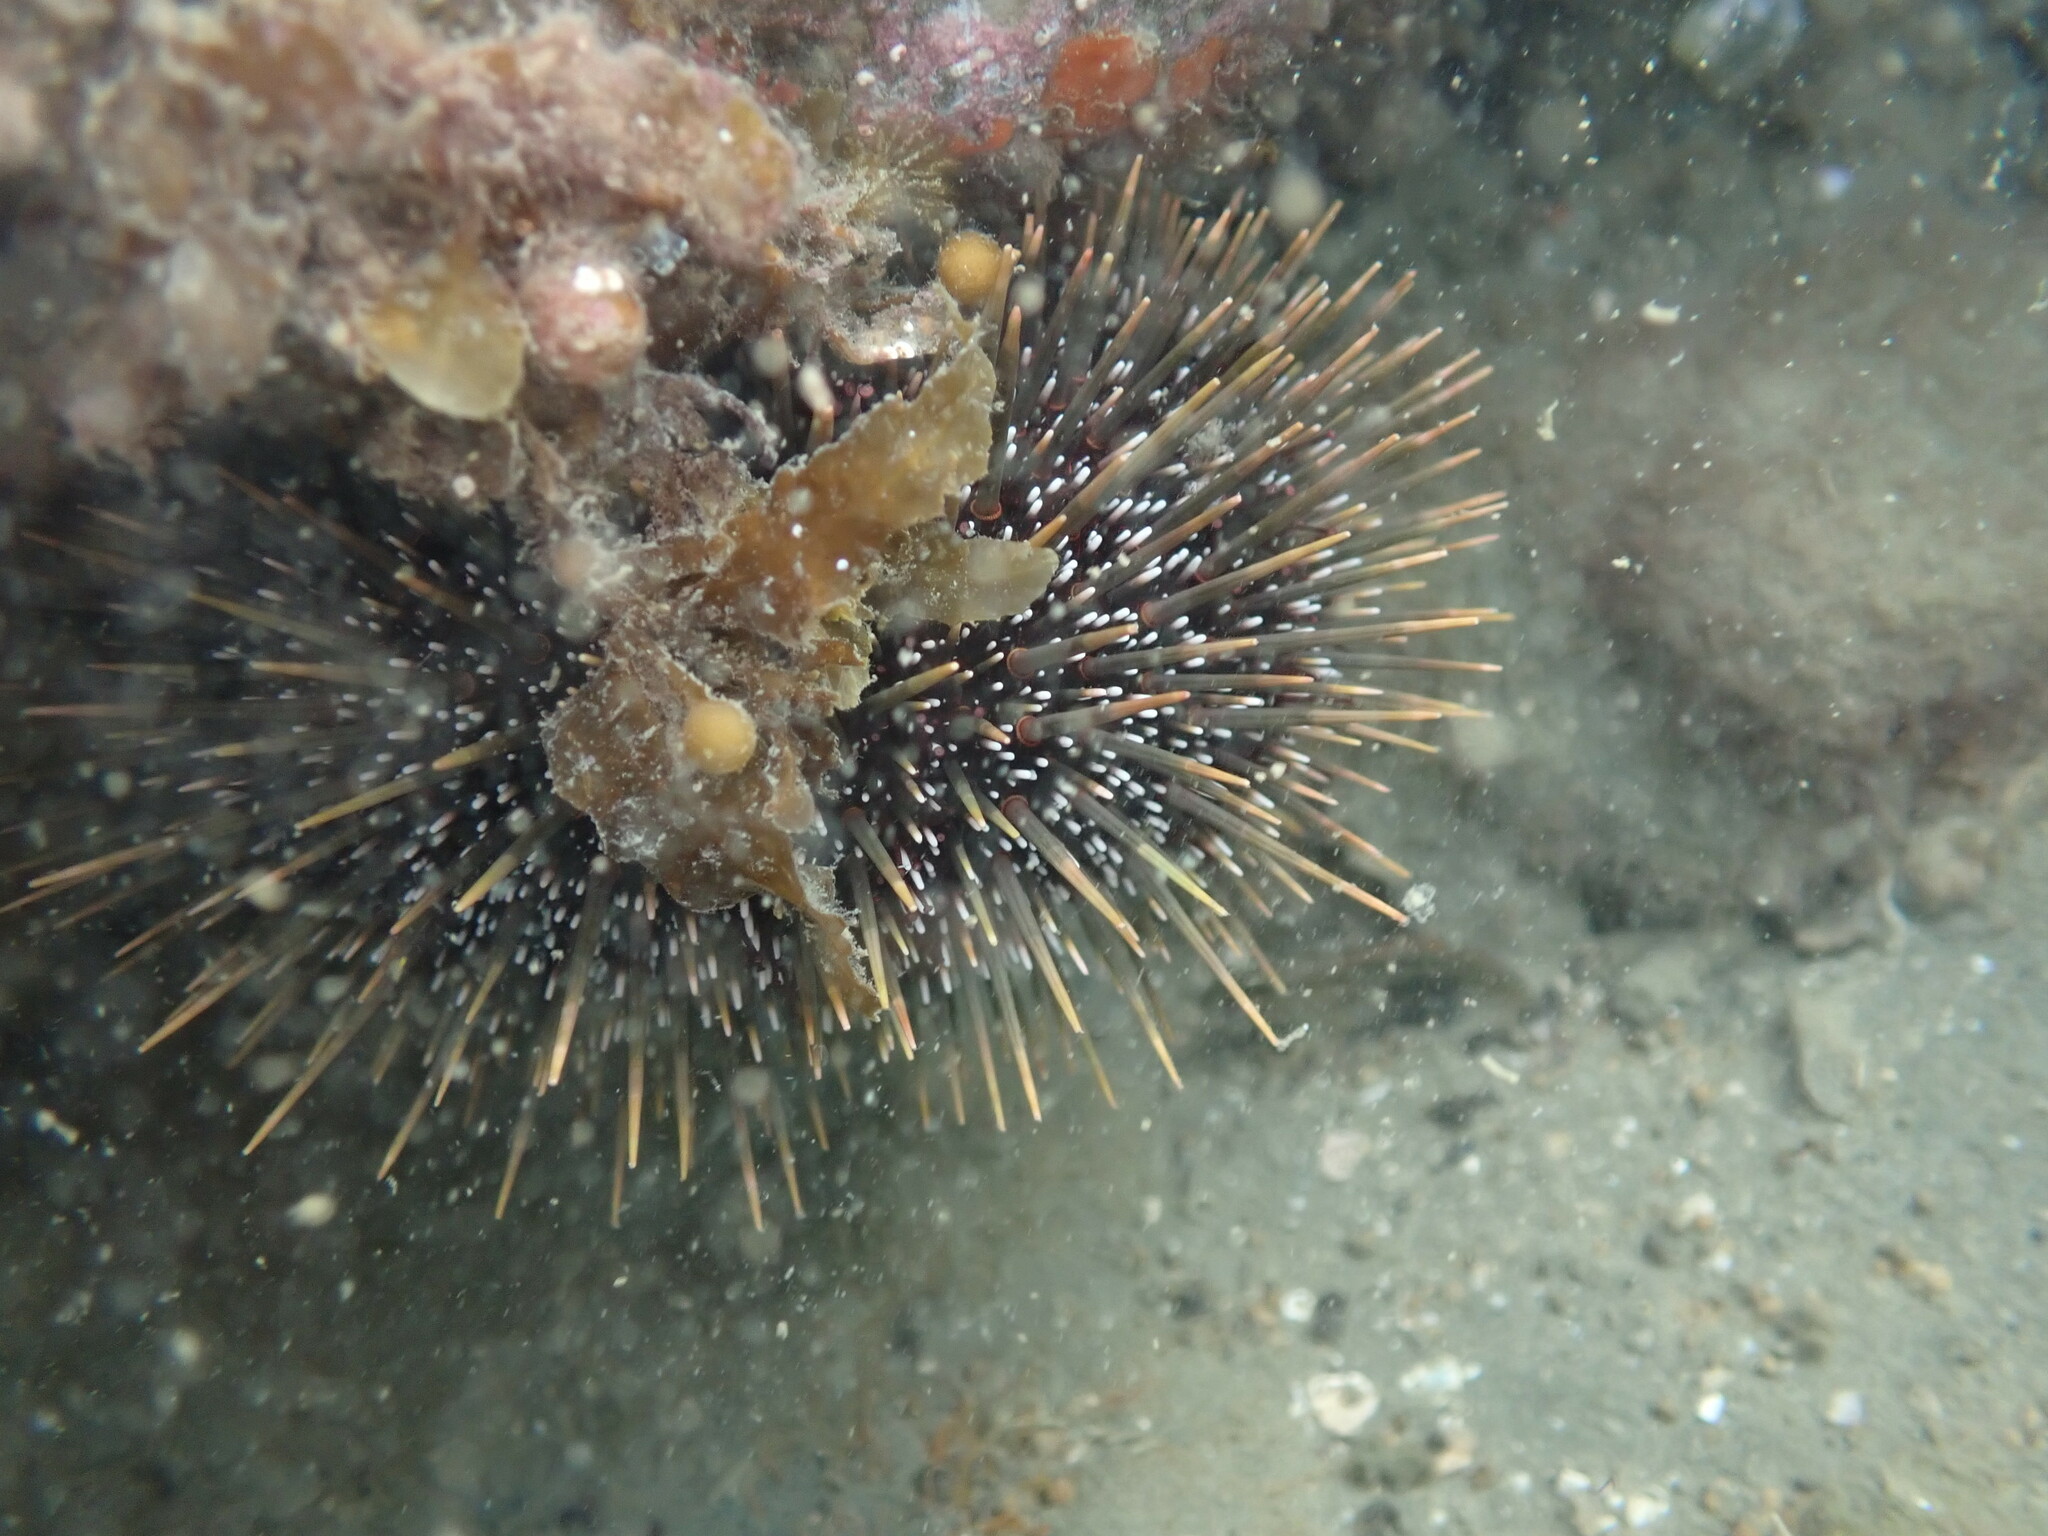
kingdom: Animalia
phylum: Echinodermata
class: Echinoidea
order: Camarodonta
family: Echinometridae
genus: Evechinus
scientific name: Evechinus chloroticus
